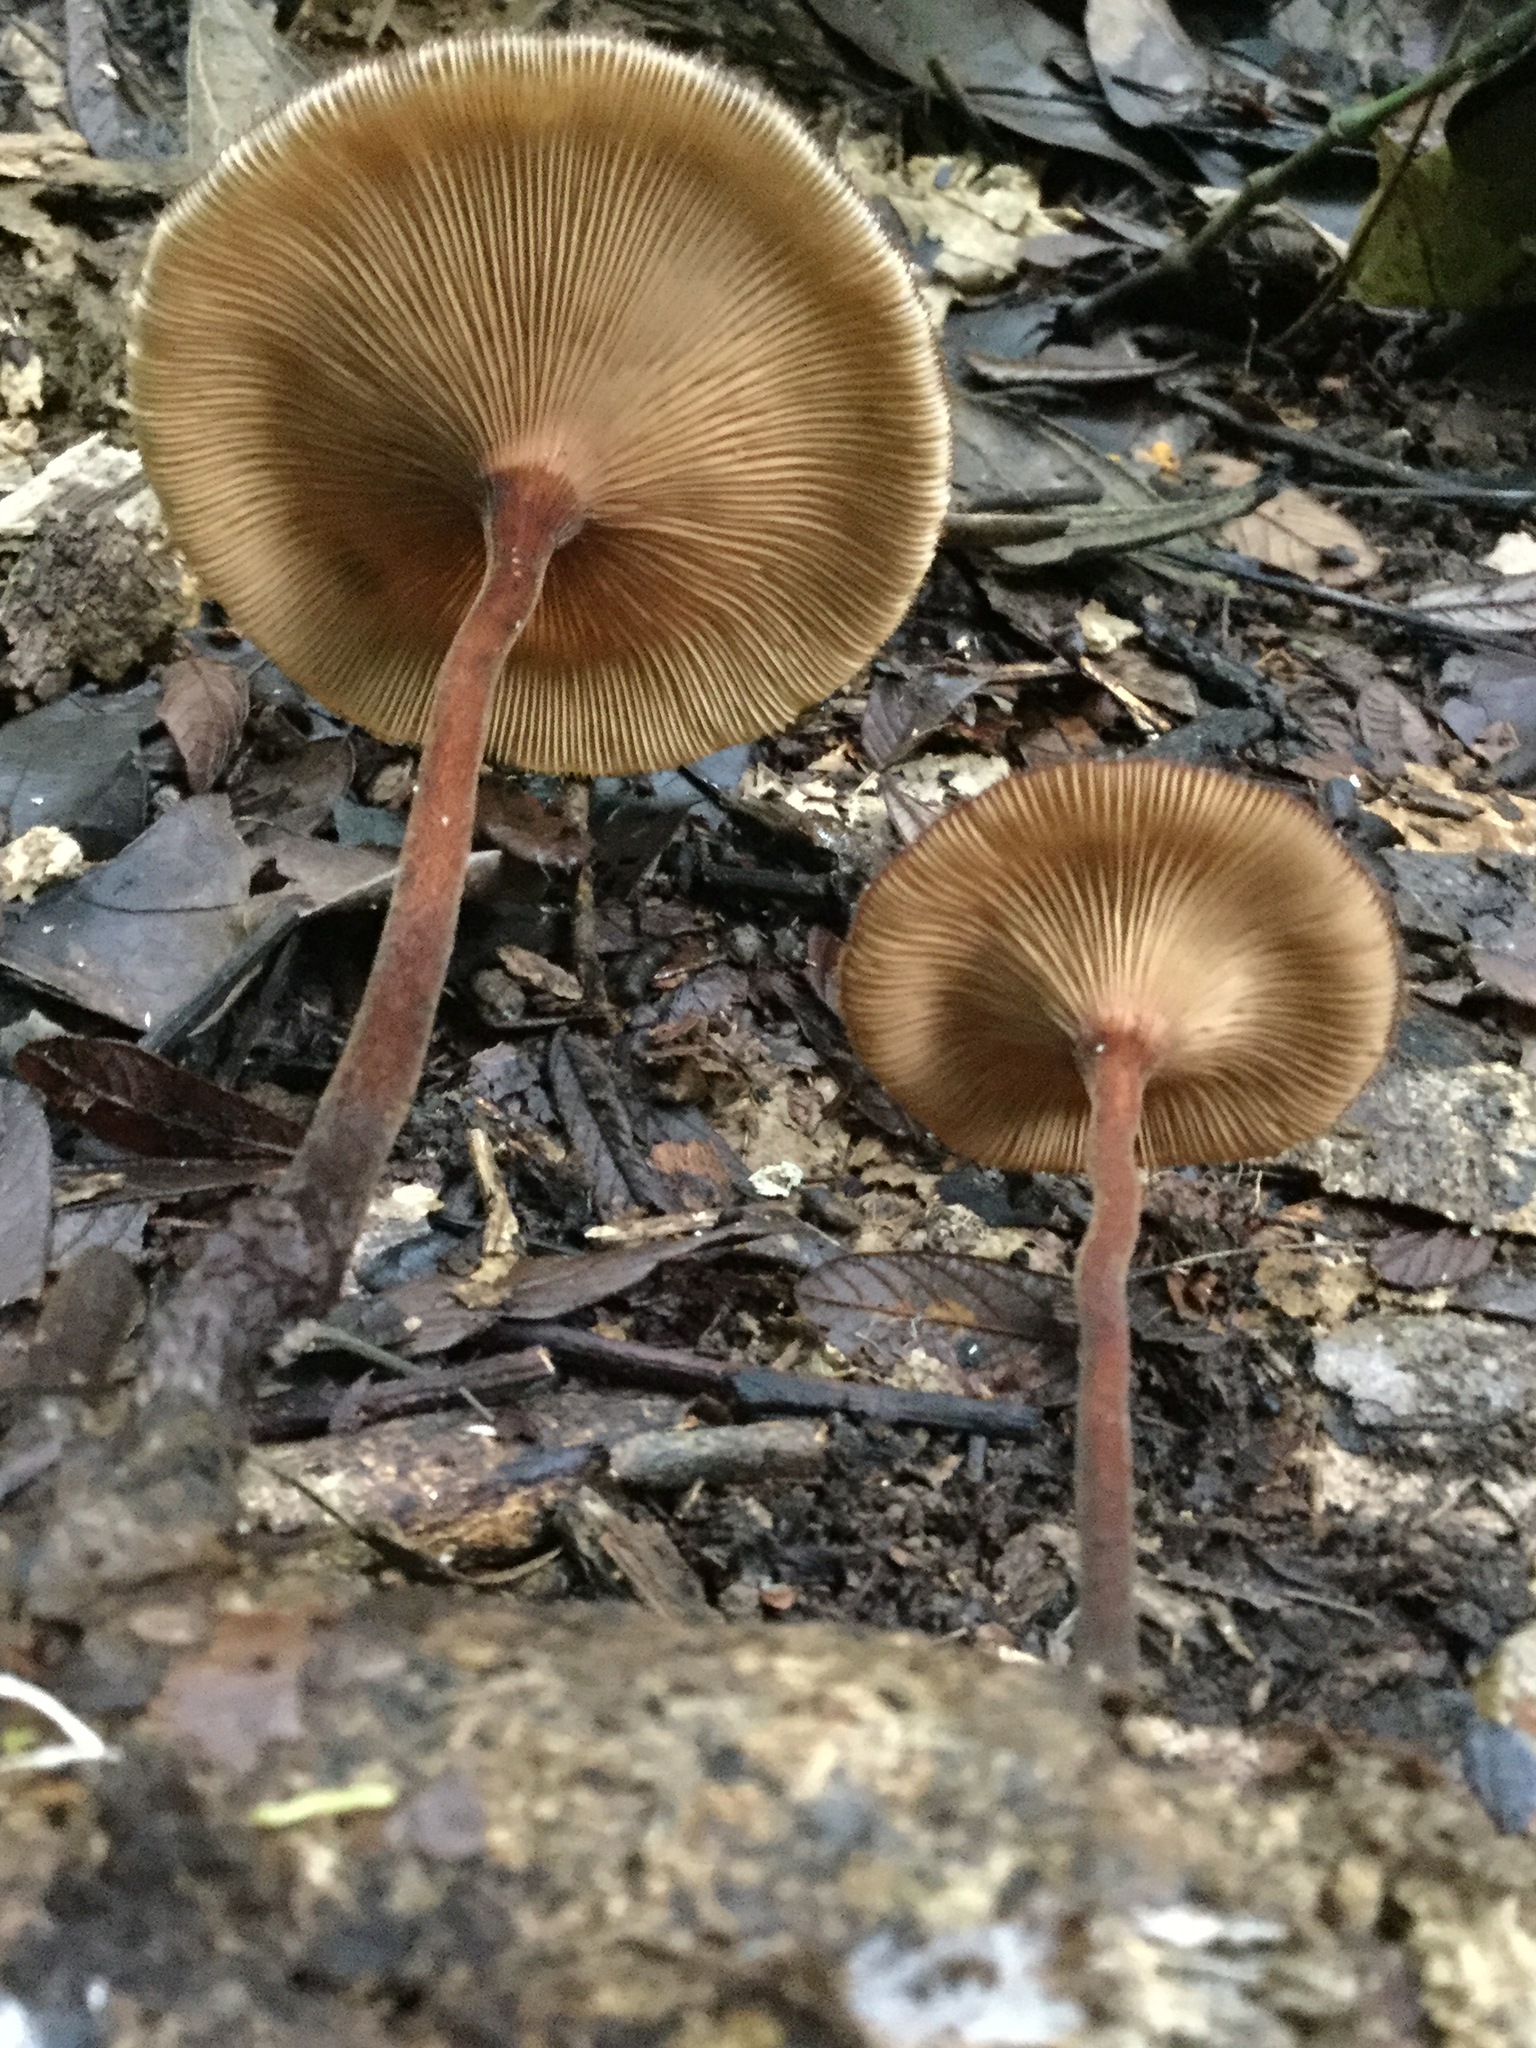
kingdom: Fungi
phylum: Basidiomycota
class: Agaricomycetes
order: Polyporales
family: Polyporaceae
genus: Lentinus
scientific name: Lentinus velutinus
